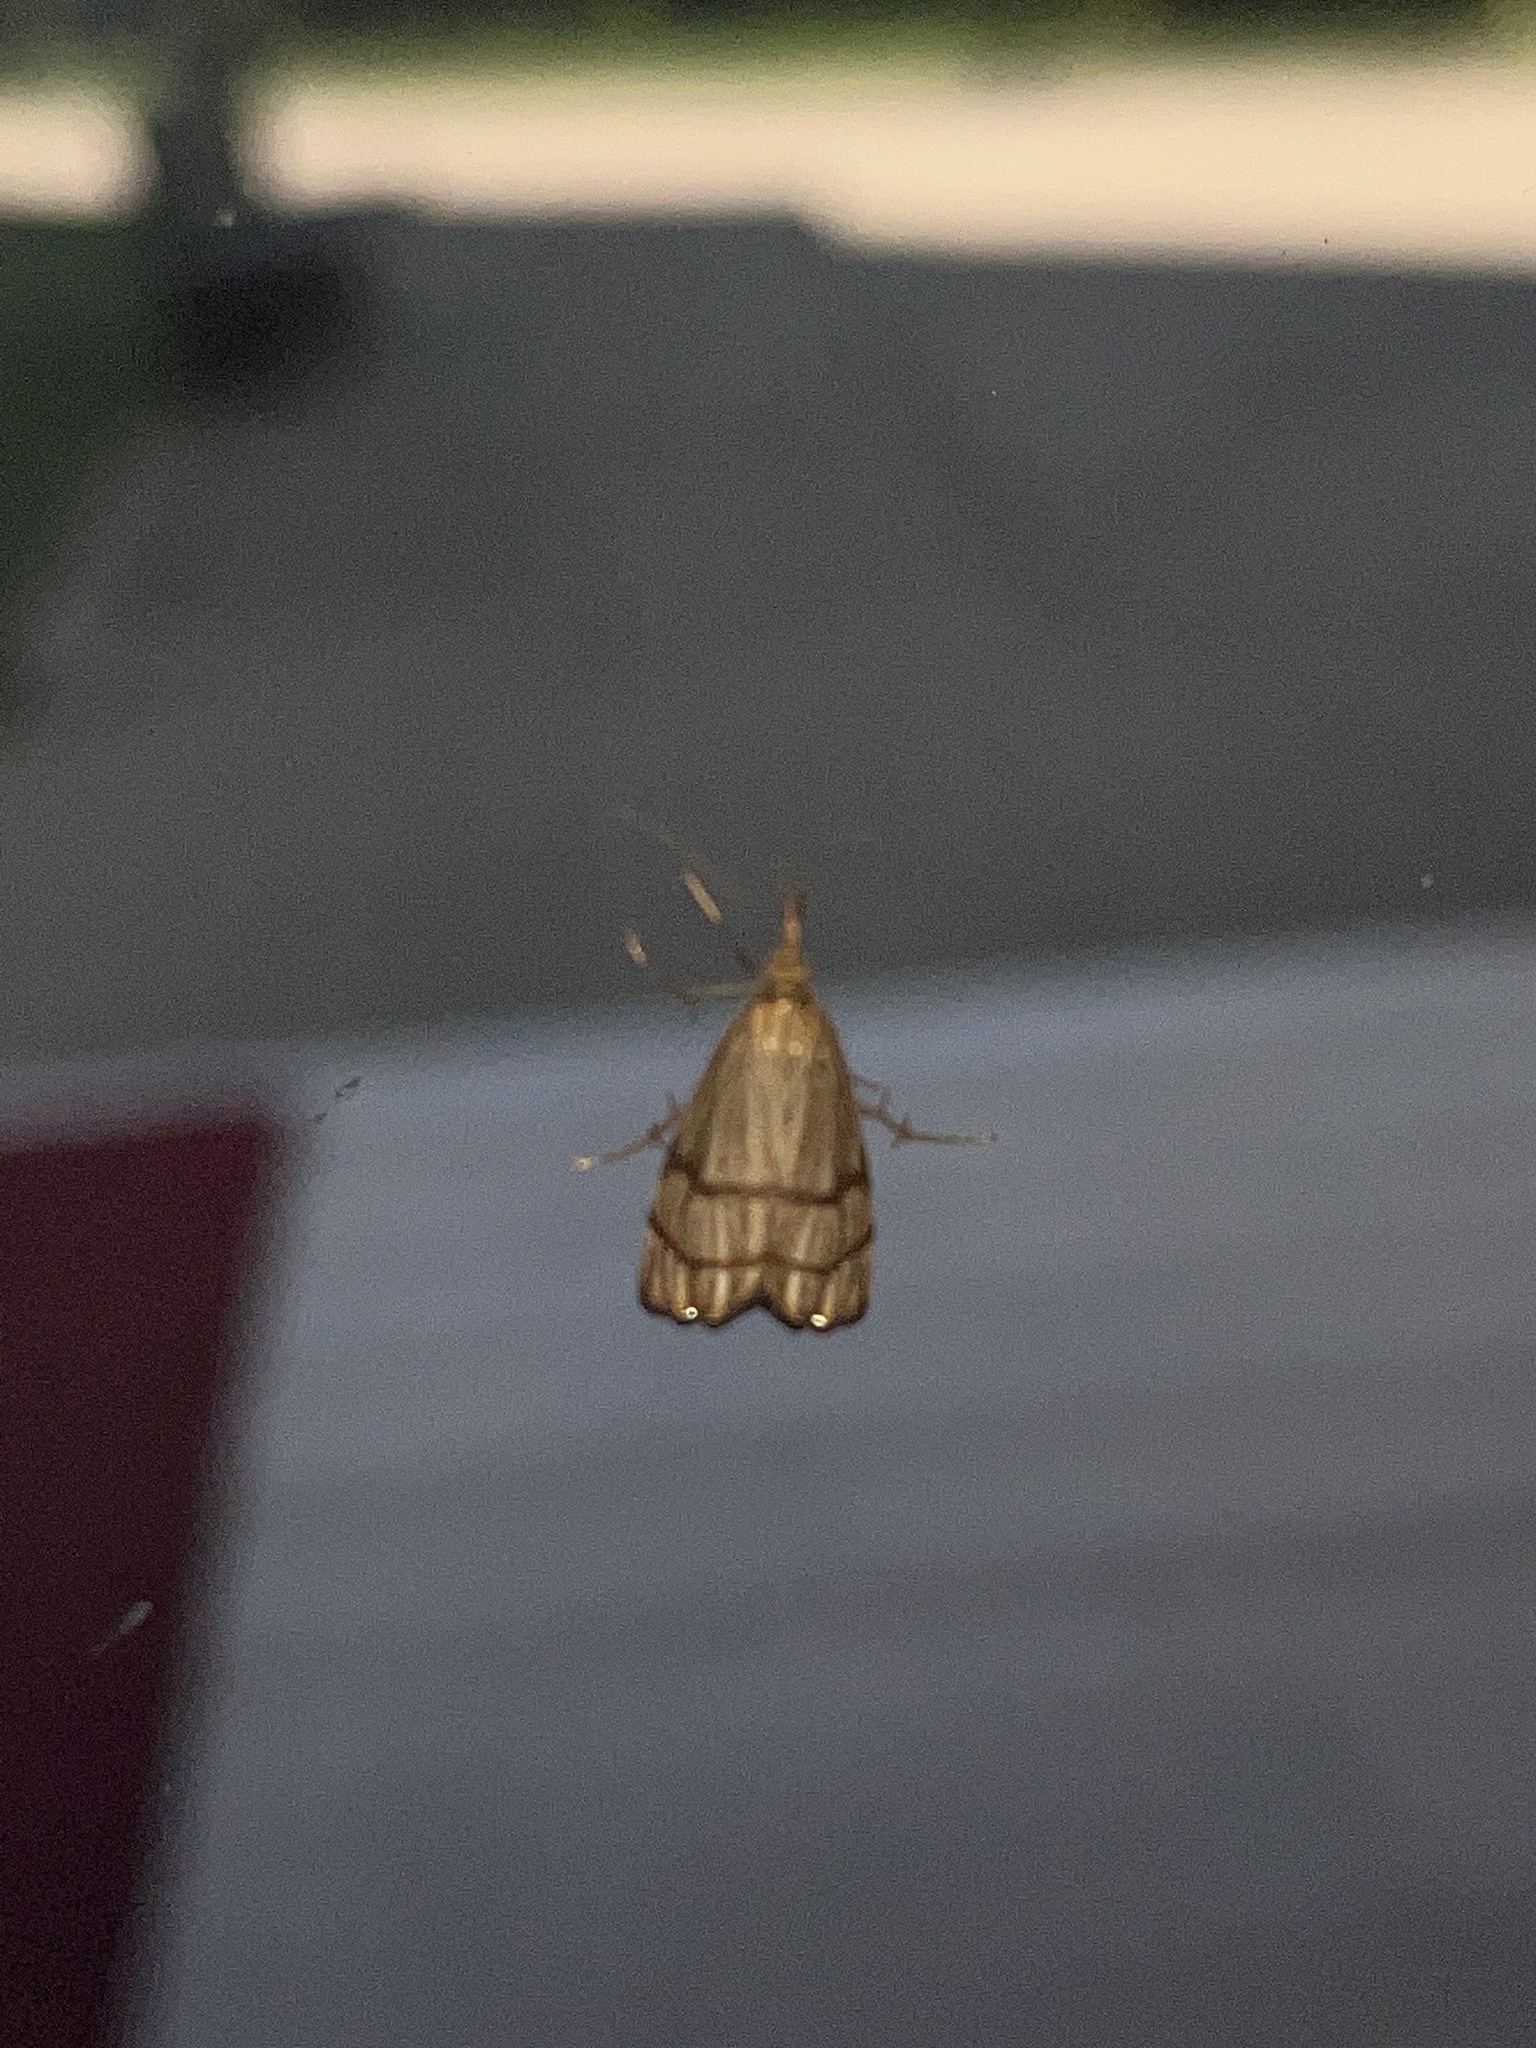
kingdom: Animalia
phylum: Arthropoda
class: Insecta
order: Lepidoptera
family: Crambidae
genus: Chrysocrambus
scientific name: Chrysocrambus linetella
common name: Orange-bar grass-veneer
